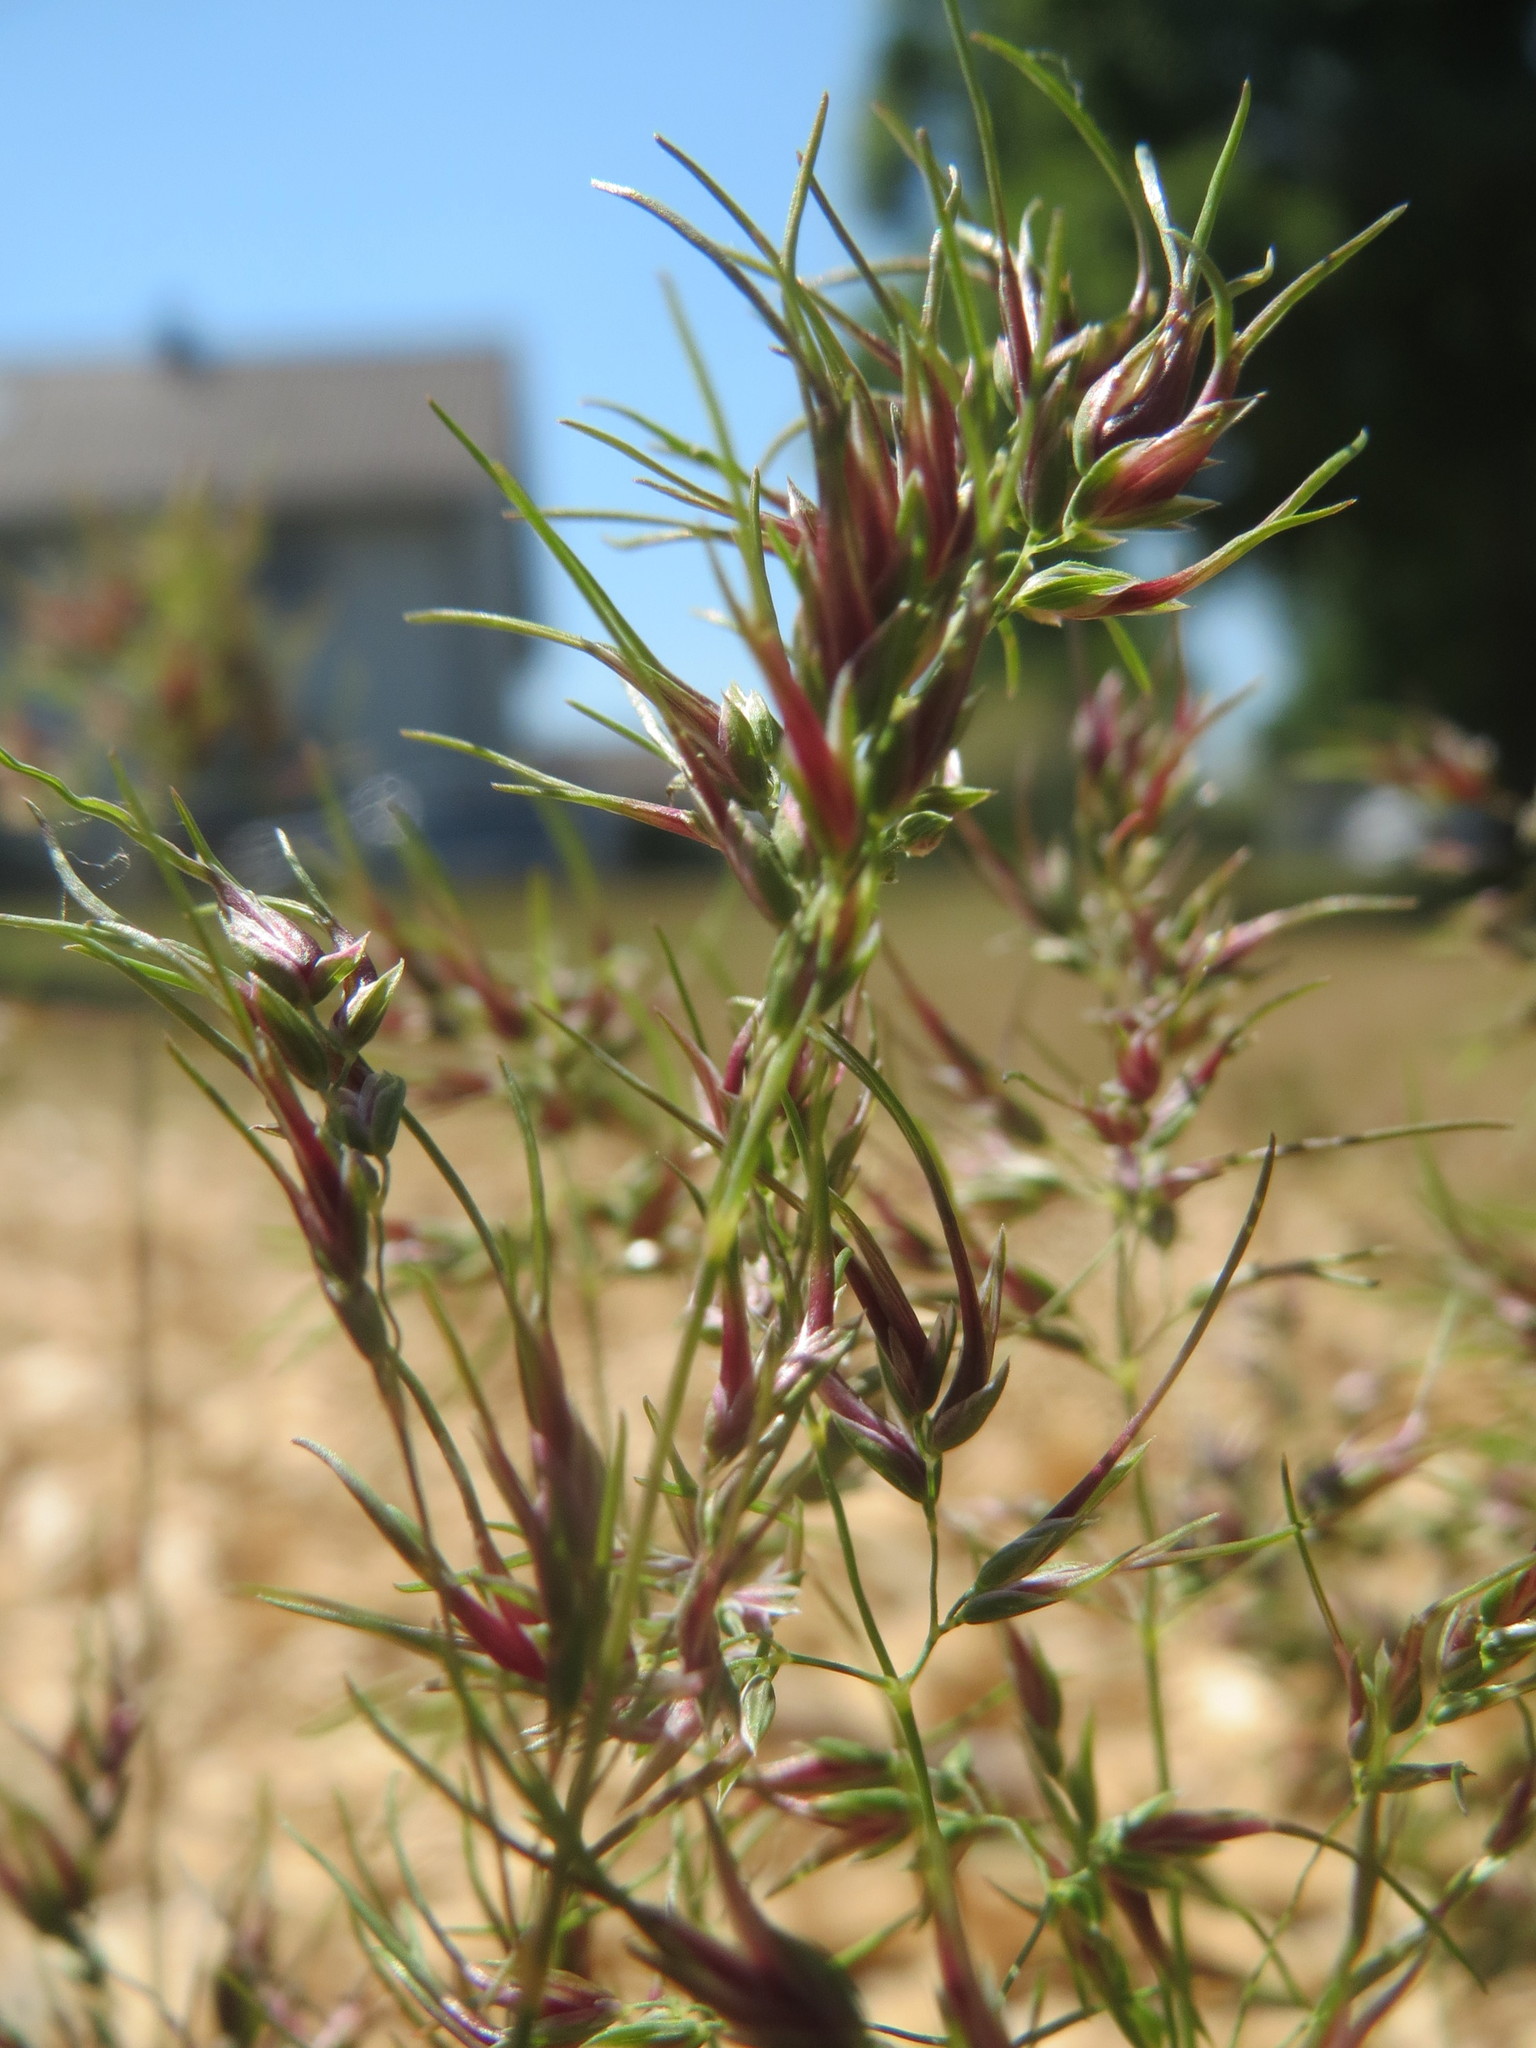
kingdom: Plantae
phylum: Tracheophyta
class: Liliopsida
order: Poales
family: Poaceae
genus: Poa
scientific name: Poa bulbosa
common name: Bulbous bluegrass
